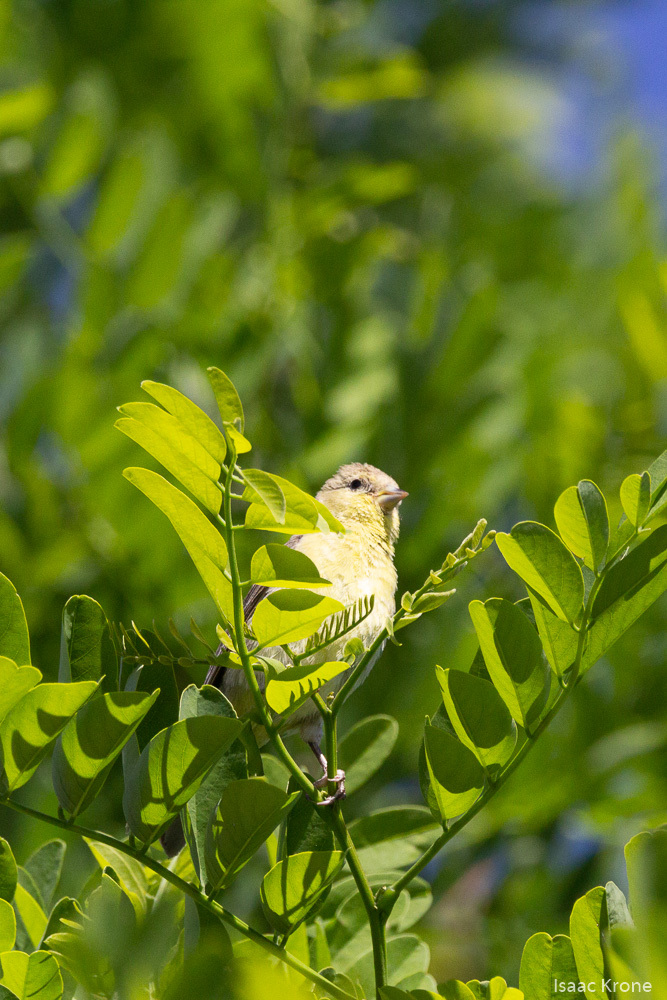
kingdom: Animalia
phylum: Chordata
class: Aves
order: Passeriformes
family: Fringillidae
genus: Spinus
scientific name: Spinus tristis
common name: American goldfinch
